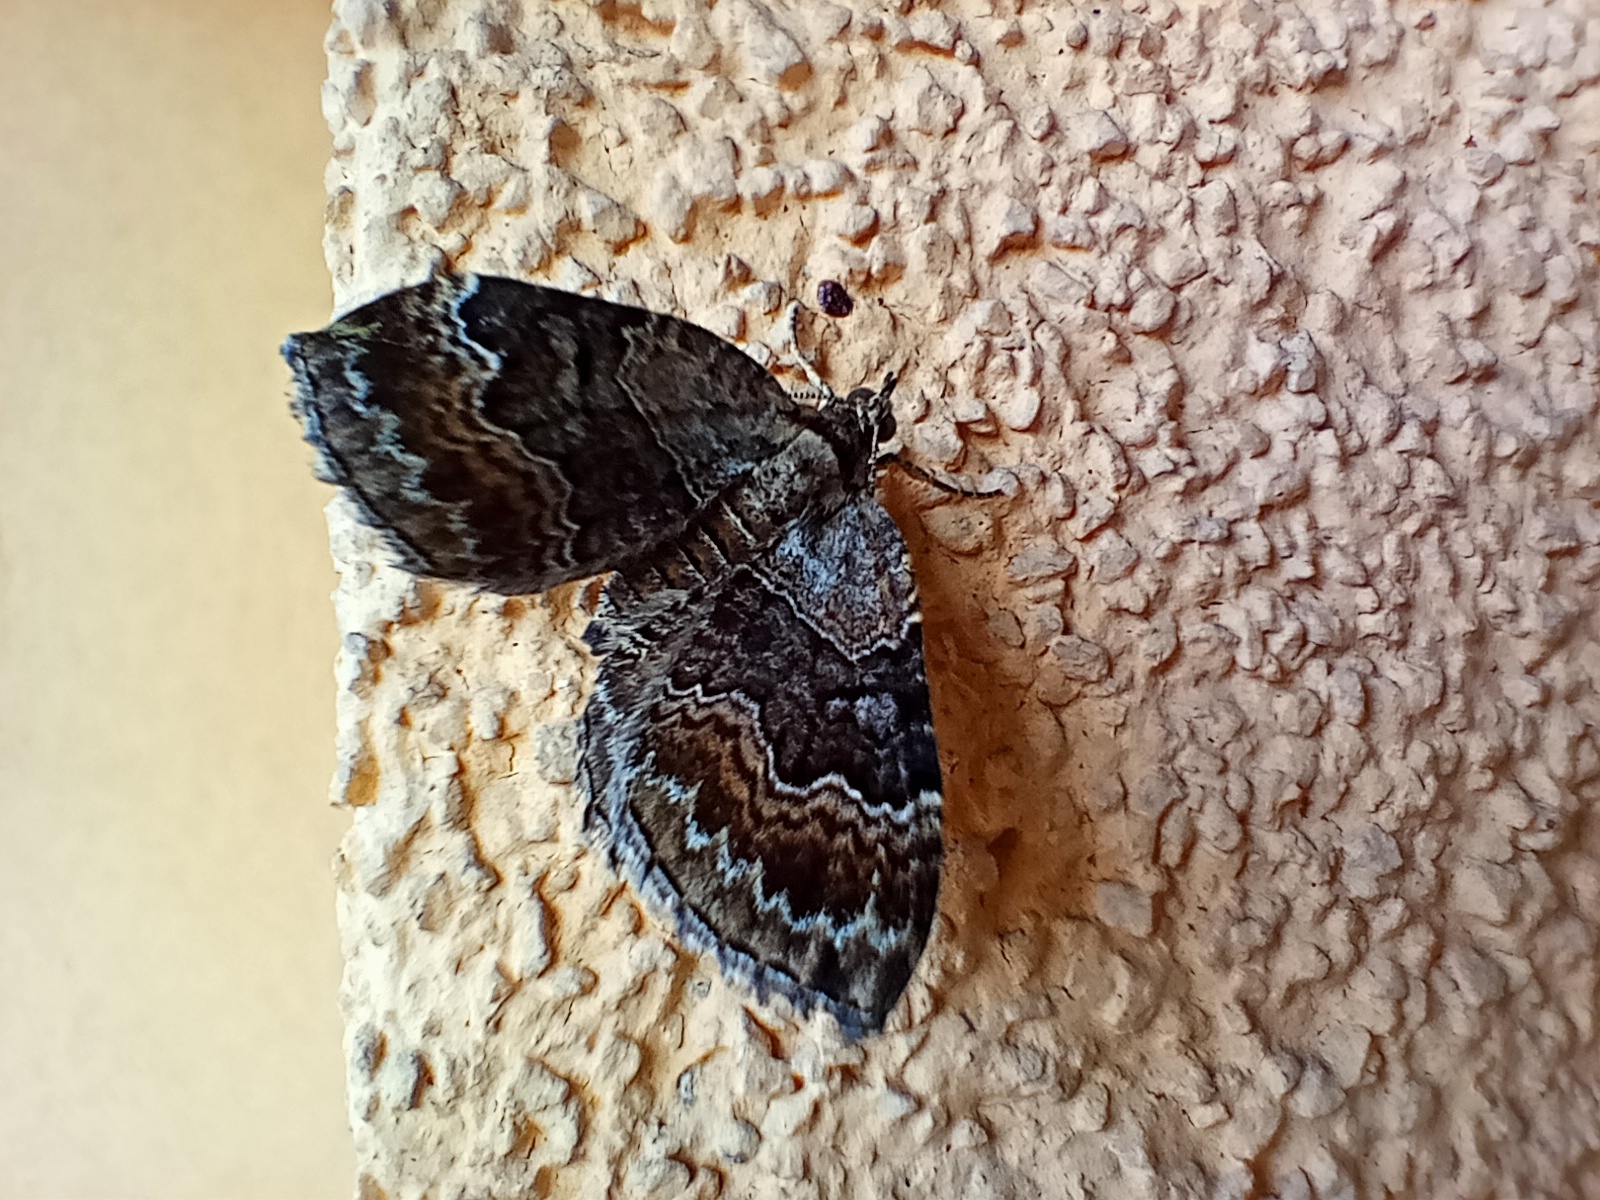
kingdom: Animalia
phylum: Arthropoda
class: Insecta
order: Lepidoptera
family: Geometridae
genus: Xanthorhoe
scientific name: Xanthorhoe quadrifasiata
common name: Large twin-spot carpet
